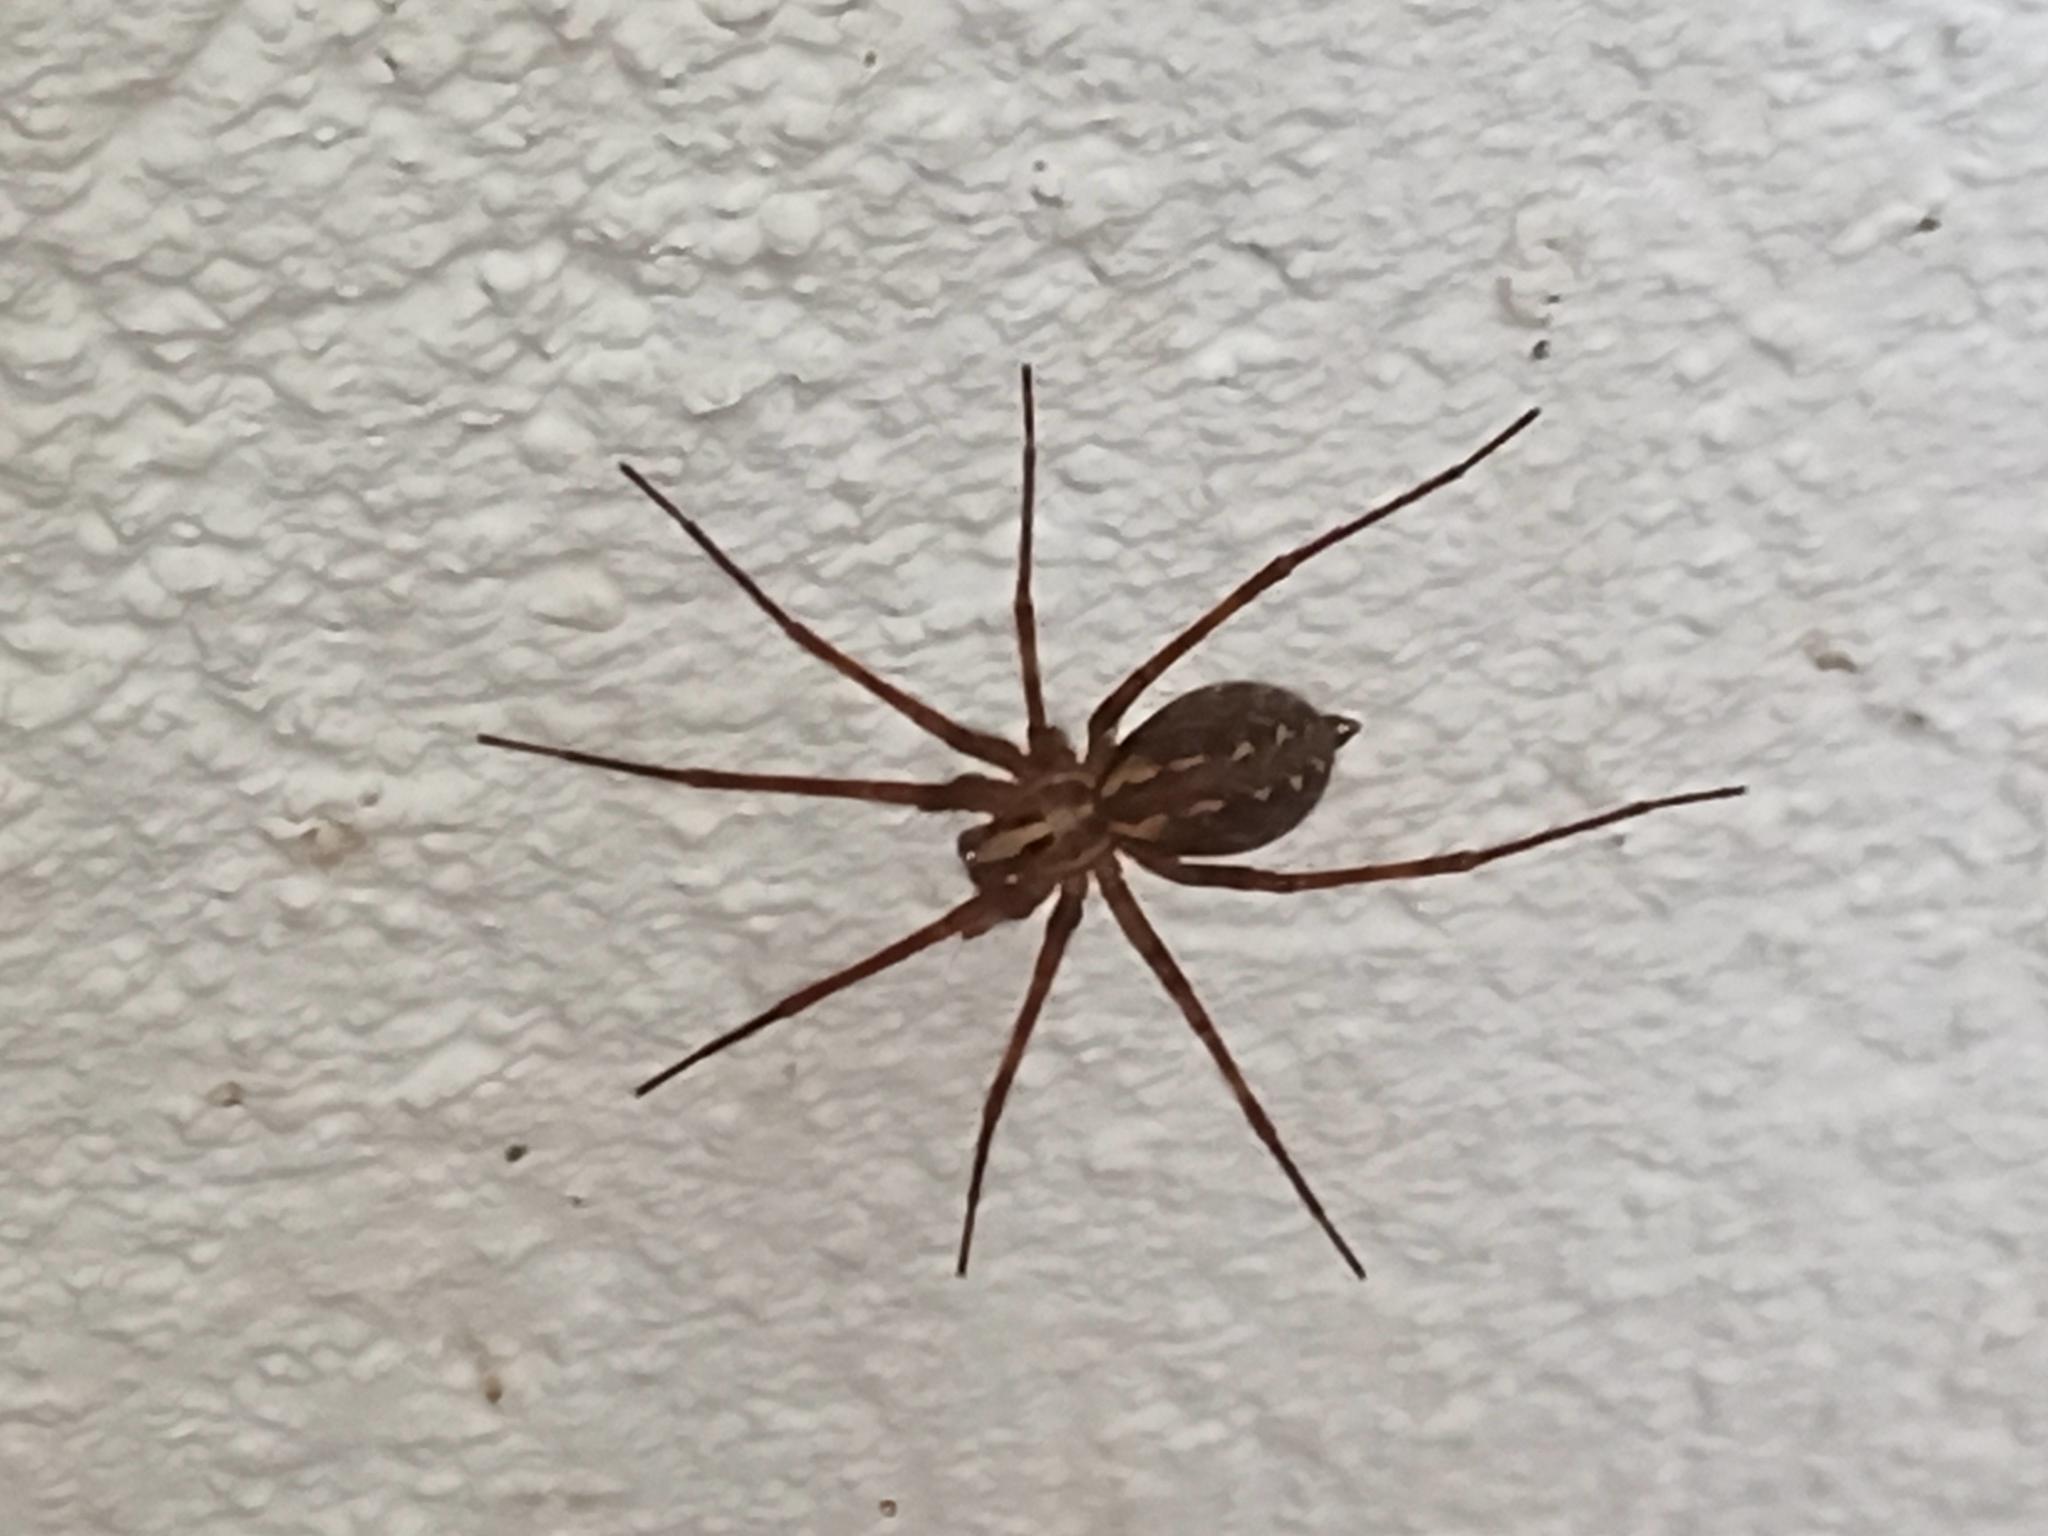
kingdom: Animalia
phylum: Arthropoda
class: Arachnida
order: Araneae
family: Agelenidae
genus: Eratigena
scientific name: Eratigena inermis
